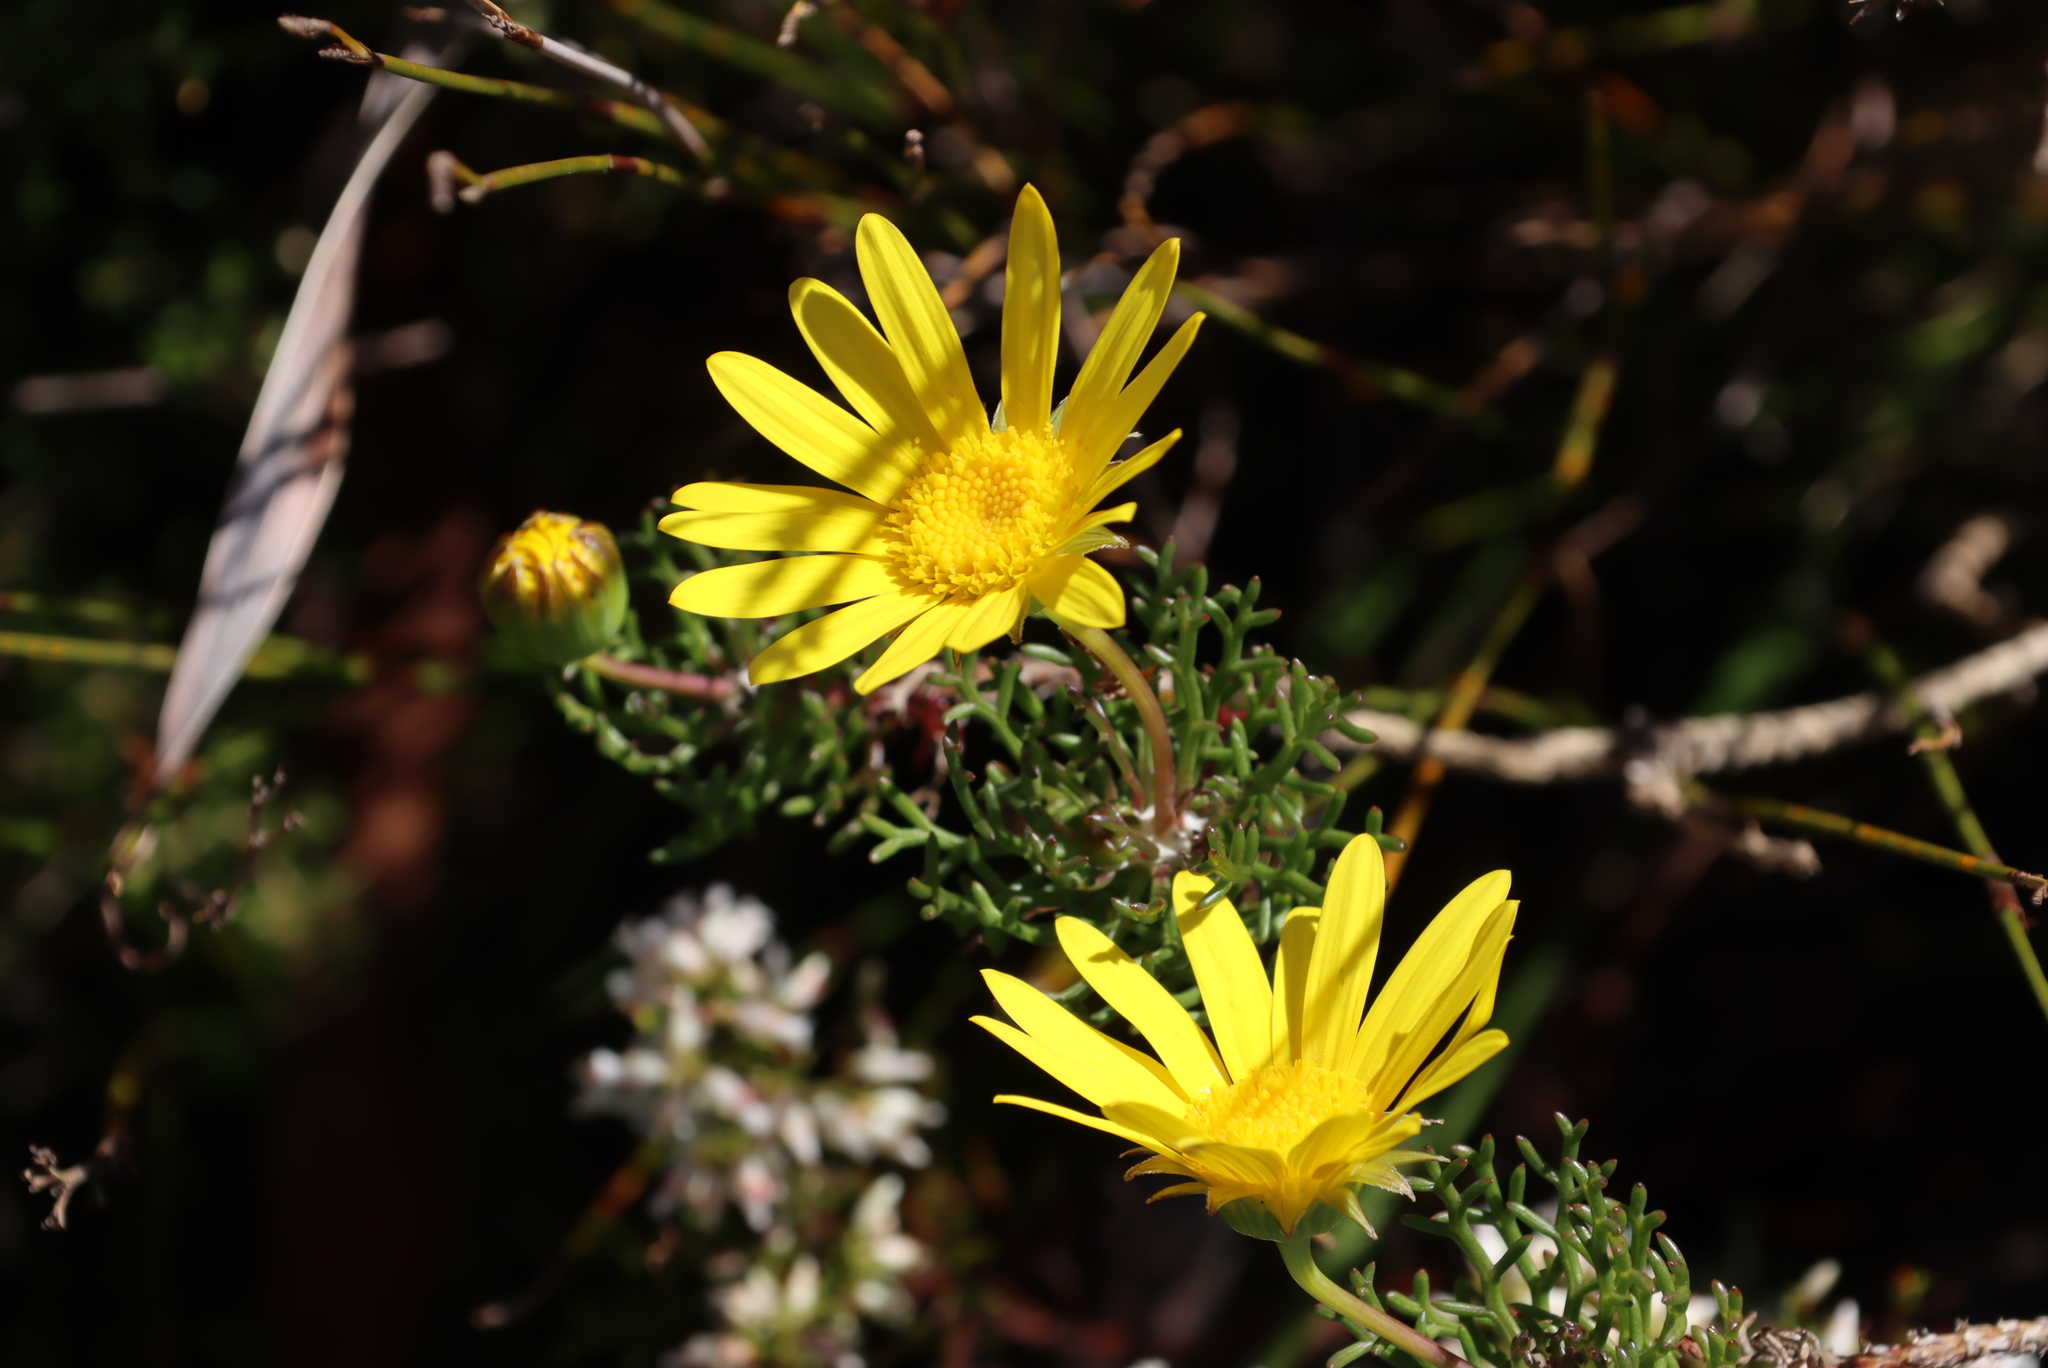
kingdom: Plantae
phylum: Tracheophyta
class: Magnoliopsida
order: Asterales
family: Asteraceae
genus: Euryops
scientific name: Euryops abrotanifolius
